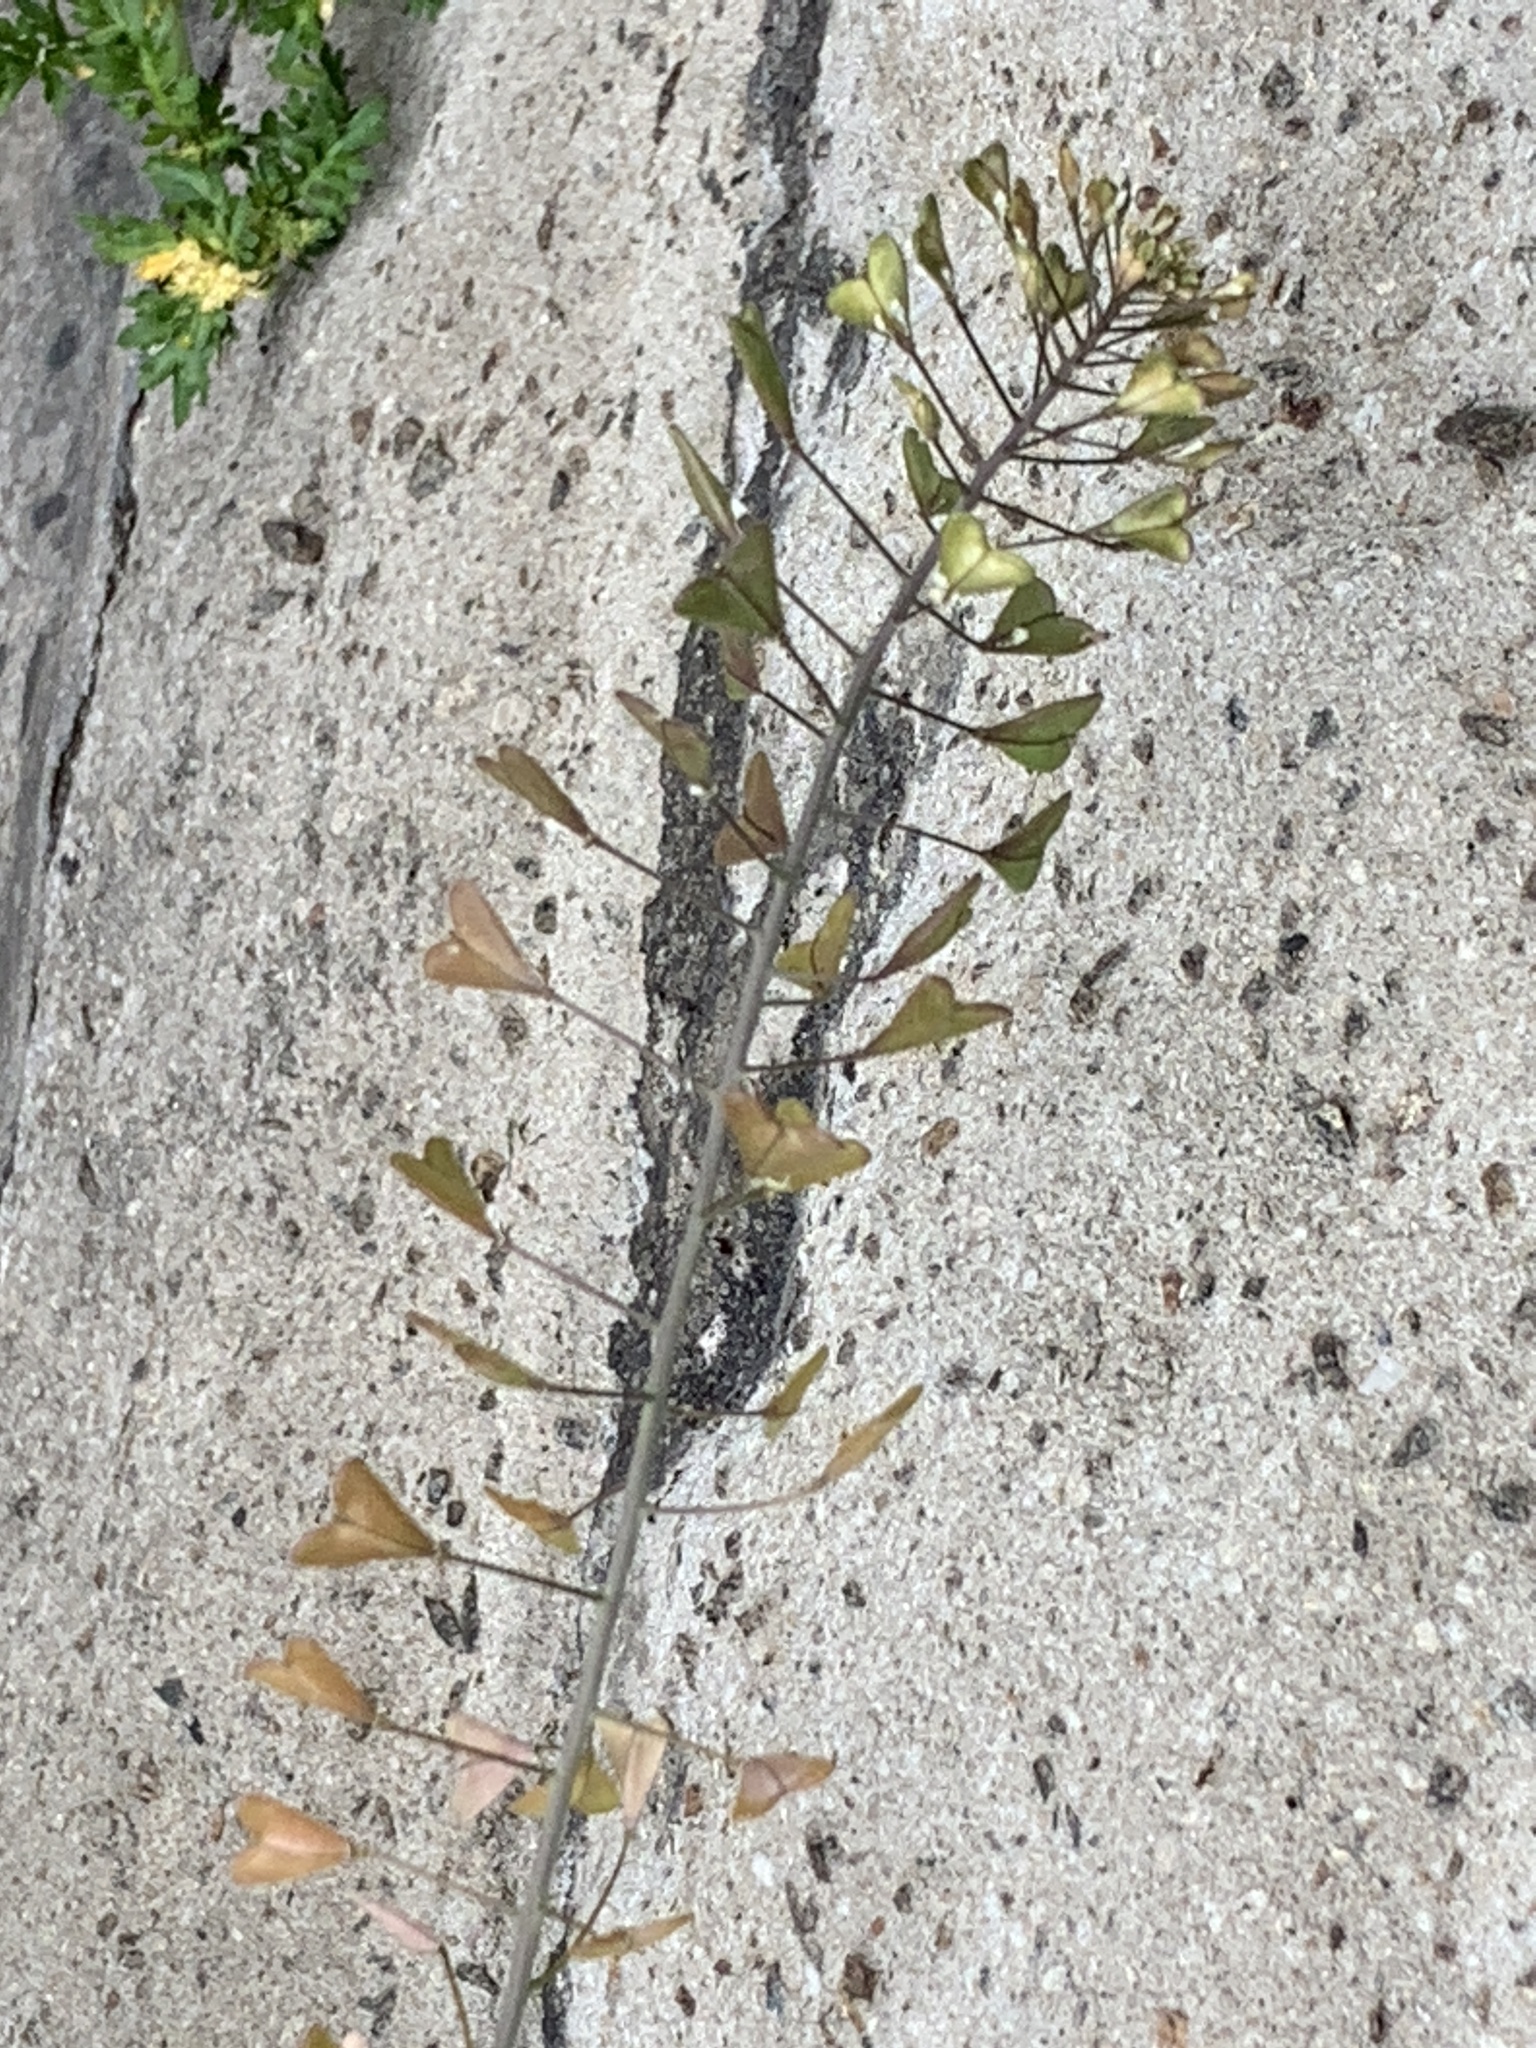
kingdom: Plantae
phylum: Tracheophyta
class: Magnoliopsida
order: Brassicales
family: Brassicaceae
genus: Capsella
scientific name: Capsella bursa-pastoris
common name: Shepherd's purse
